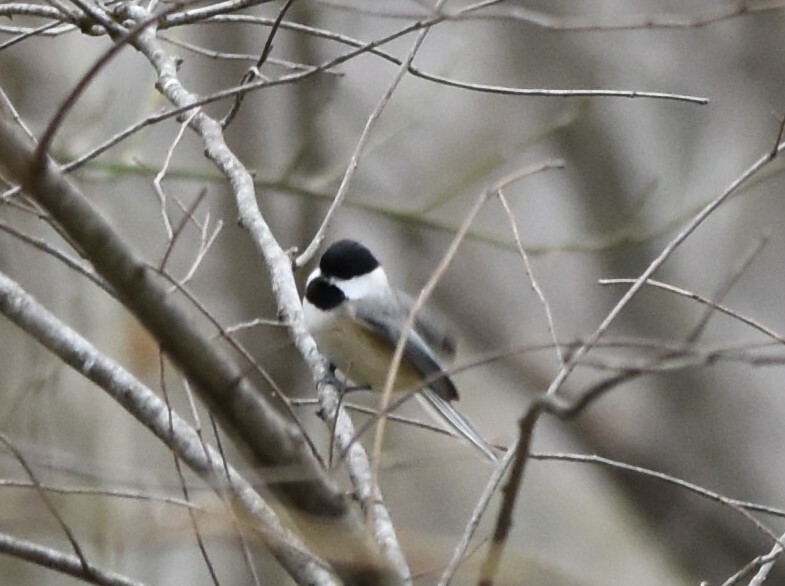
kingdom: Animalia
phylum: Chordata
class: Aves
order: Passeriformes
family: Paridae
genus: Poecile
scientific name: Poecile carolinensis
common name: Carolina chickadee
